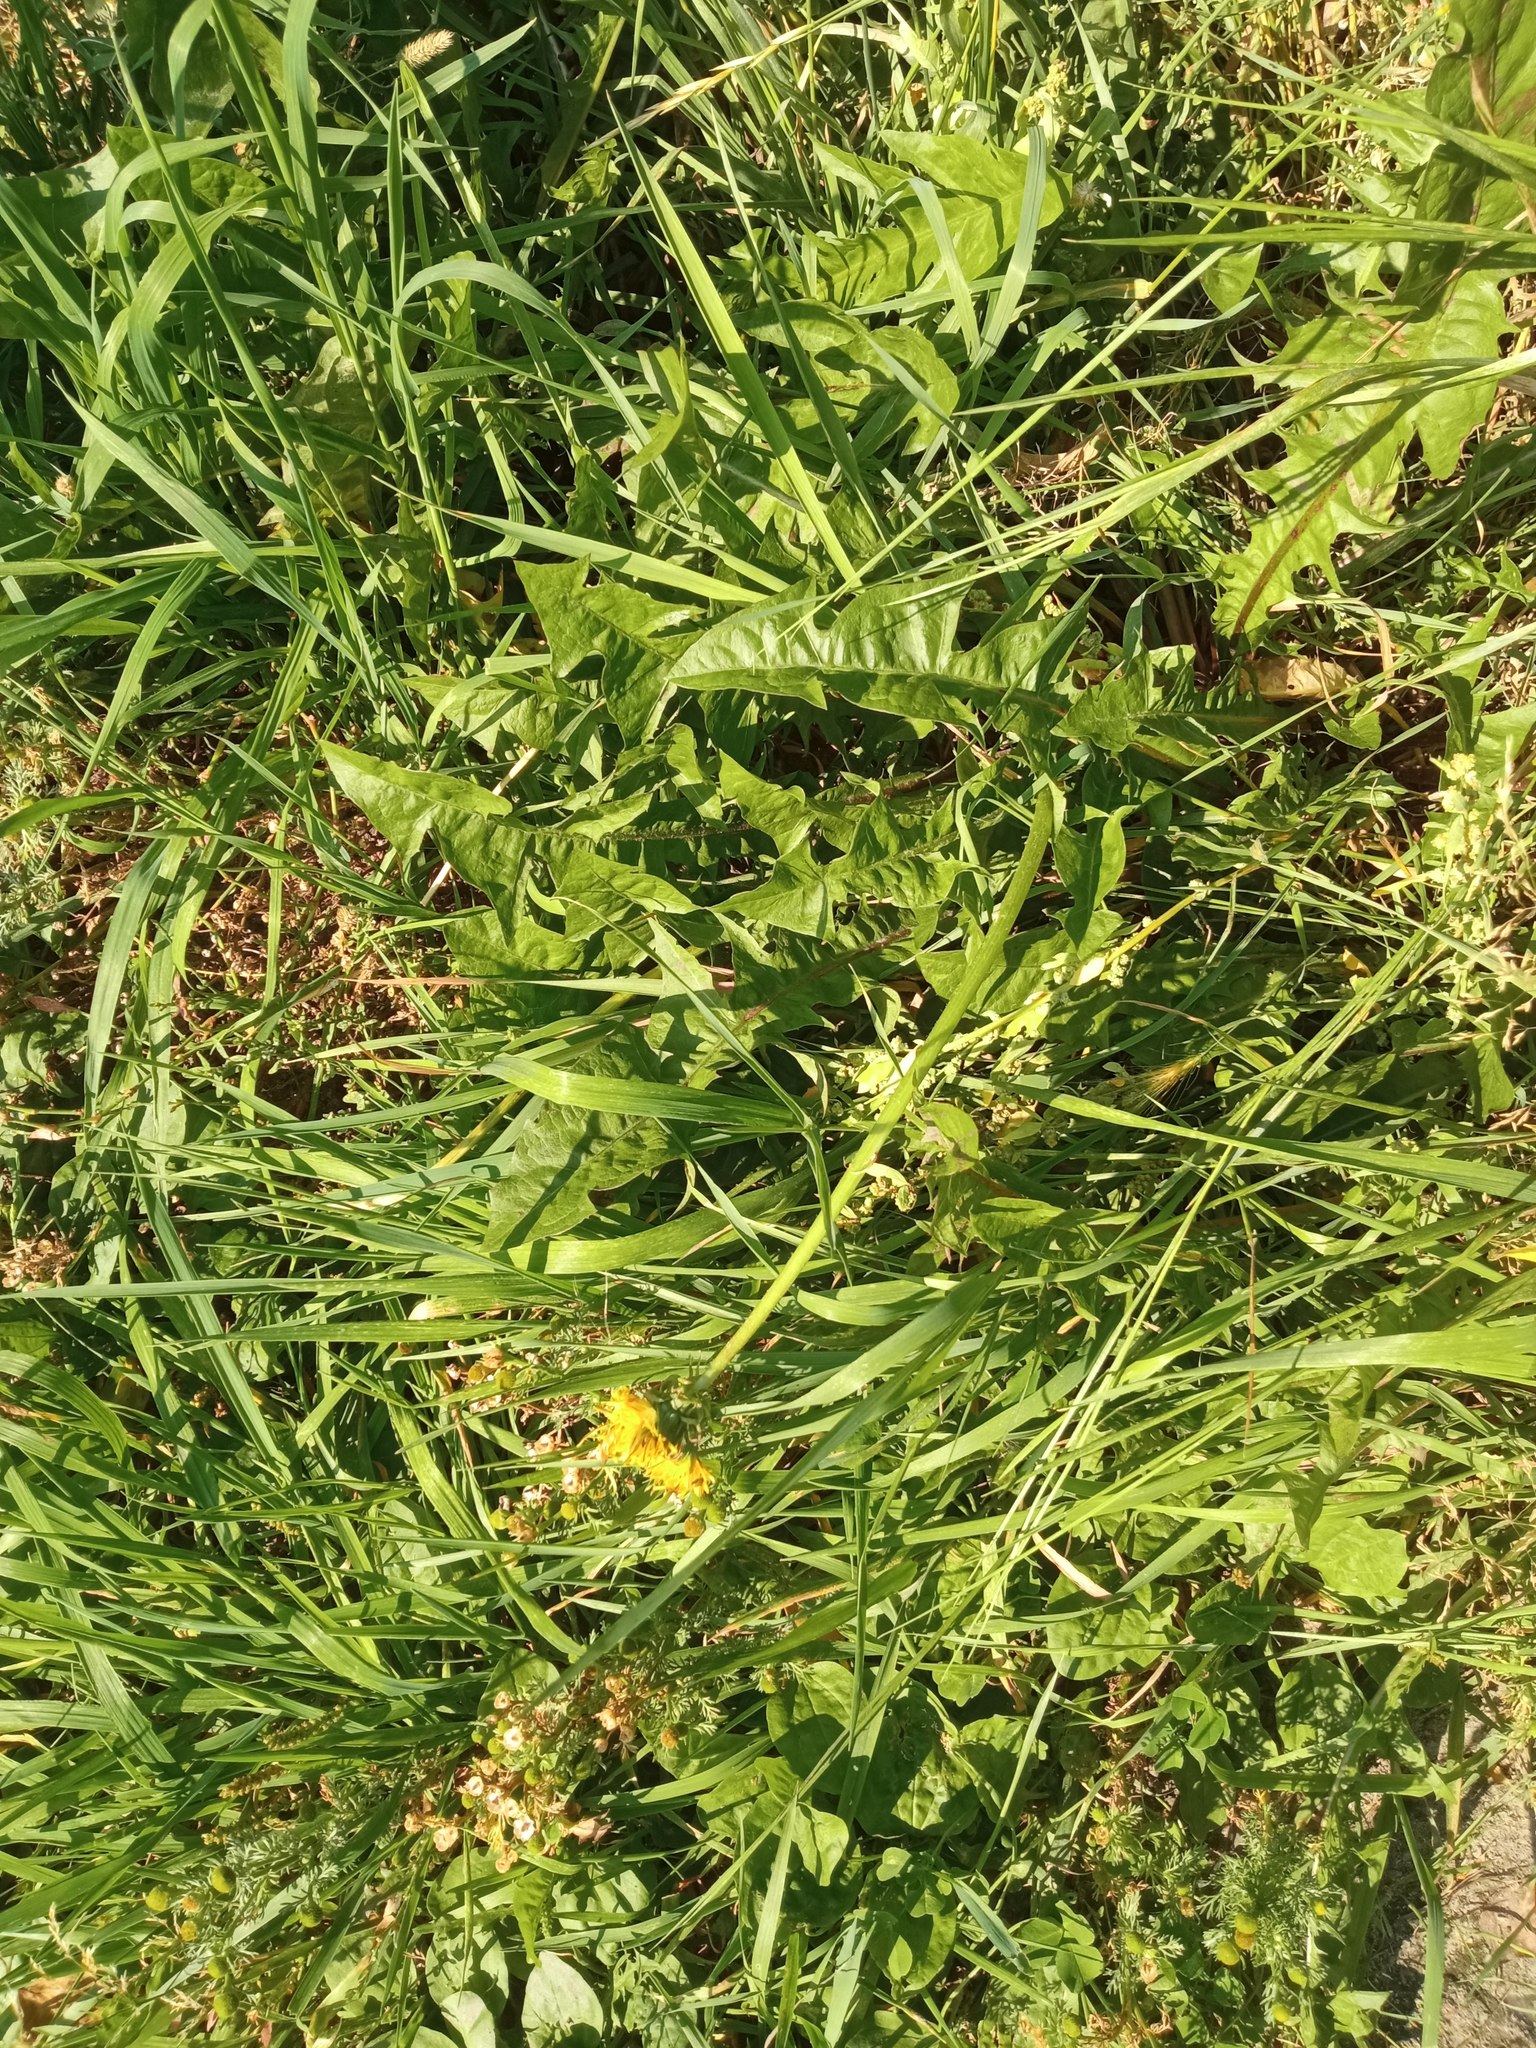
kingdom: Plantae
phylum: Tracheophyta
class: Magnoliopsida
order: Asterales
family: Asteraceae
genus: Taraxacum
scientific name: Taraxacum officinale
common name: Common dandelion
